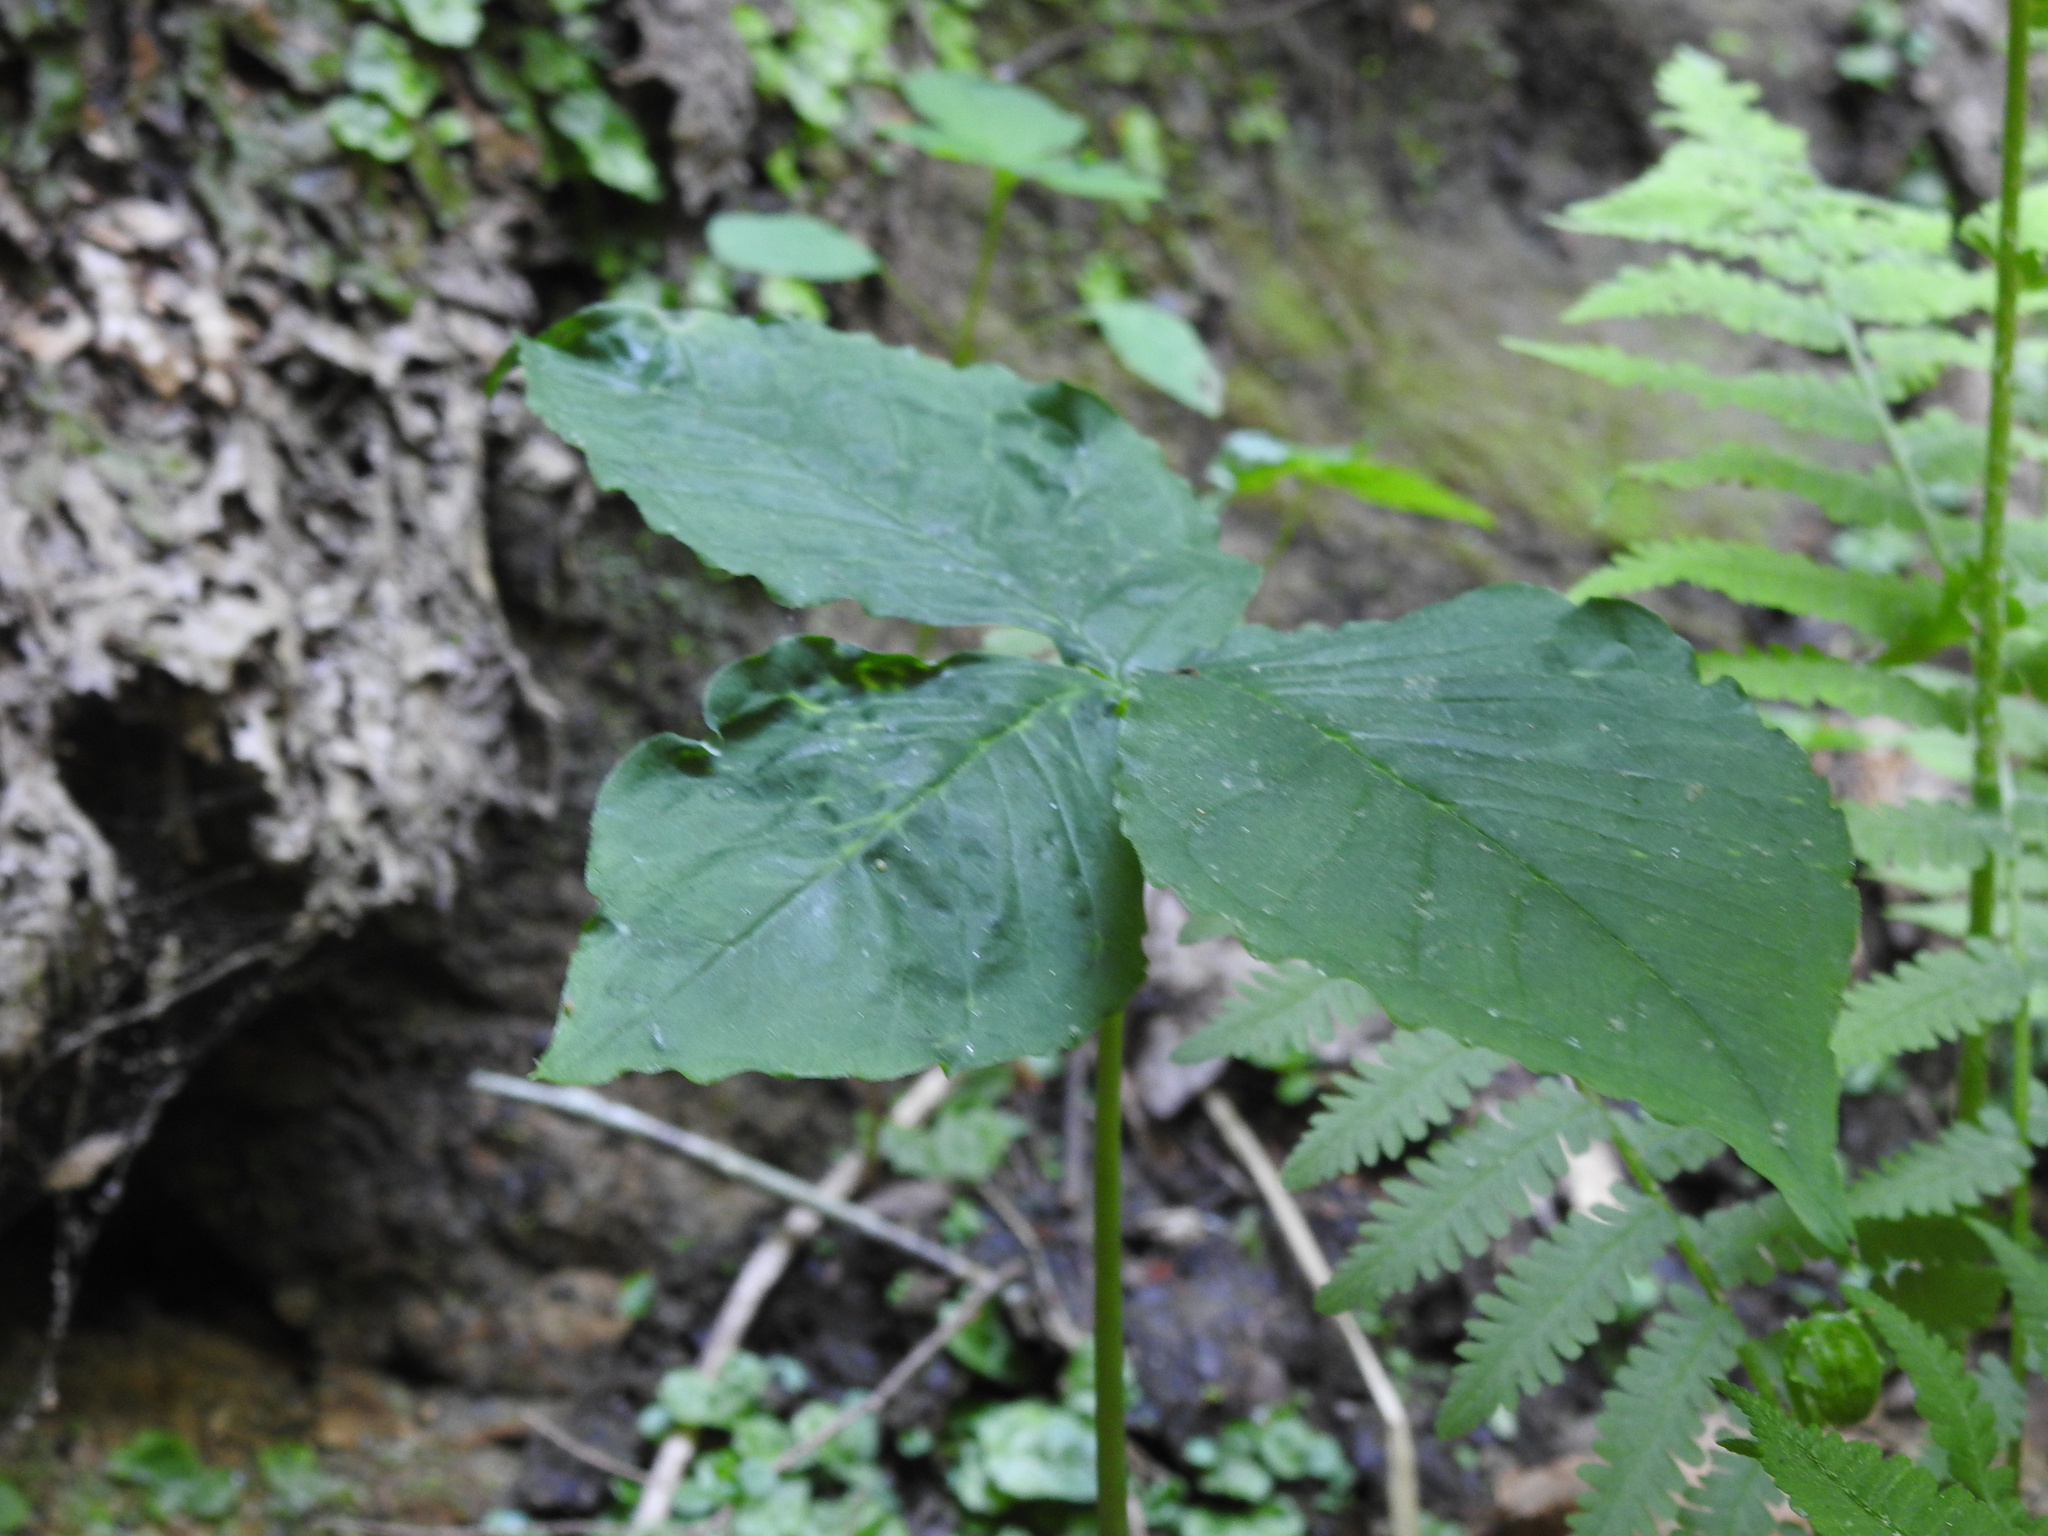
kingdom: Plantae
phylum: Tracheophyta
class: Liliopsida
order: Alismatales
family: Araceae
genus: Arisaema
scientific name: Arisaema triphyllum
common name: Jack-in-the-pulpit
